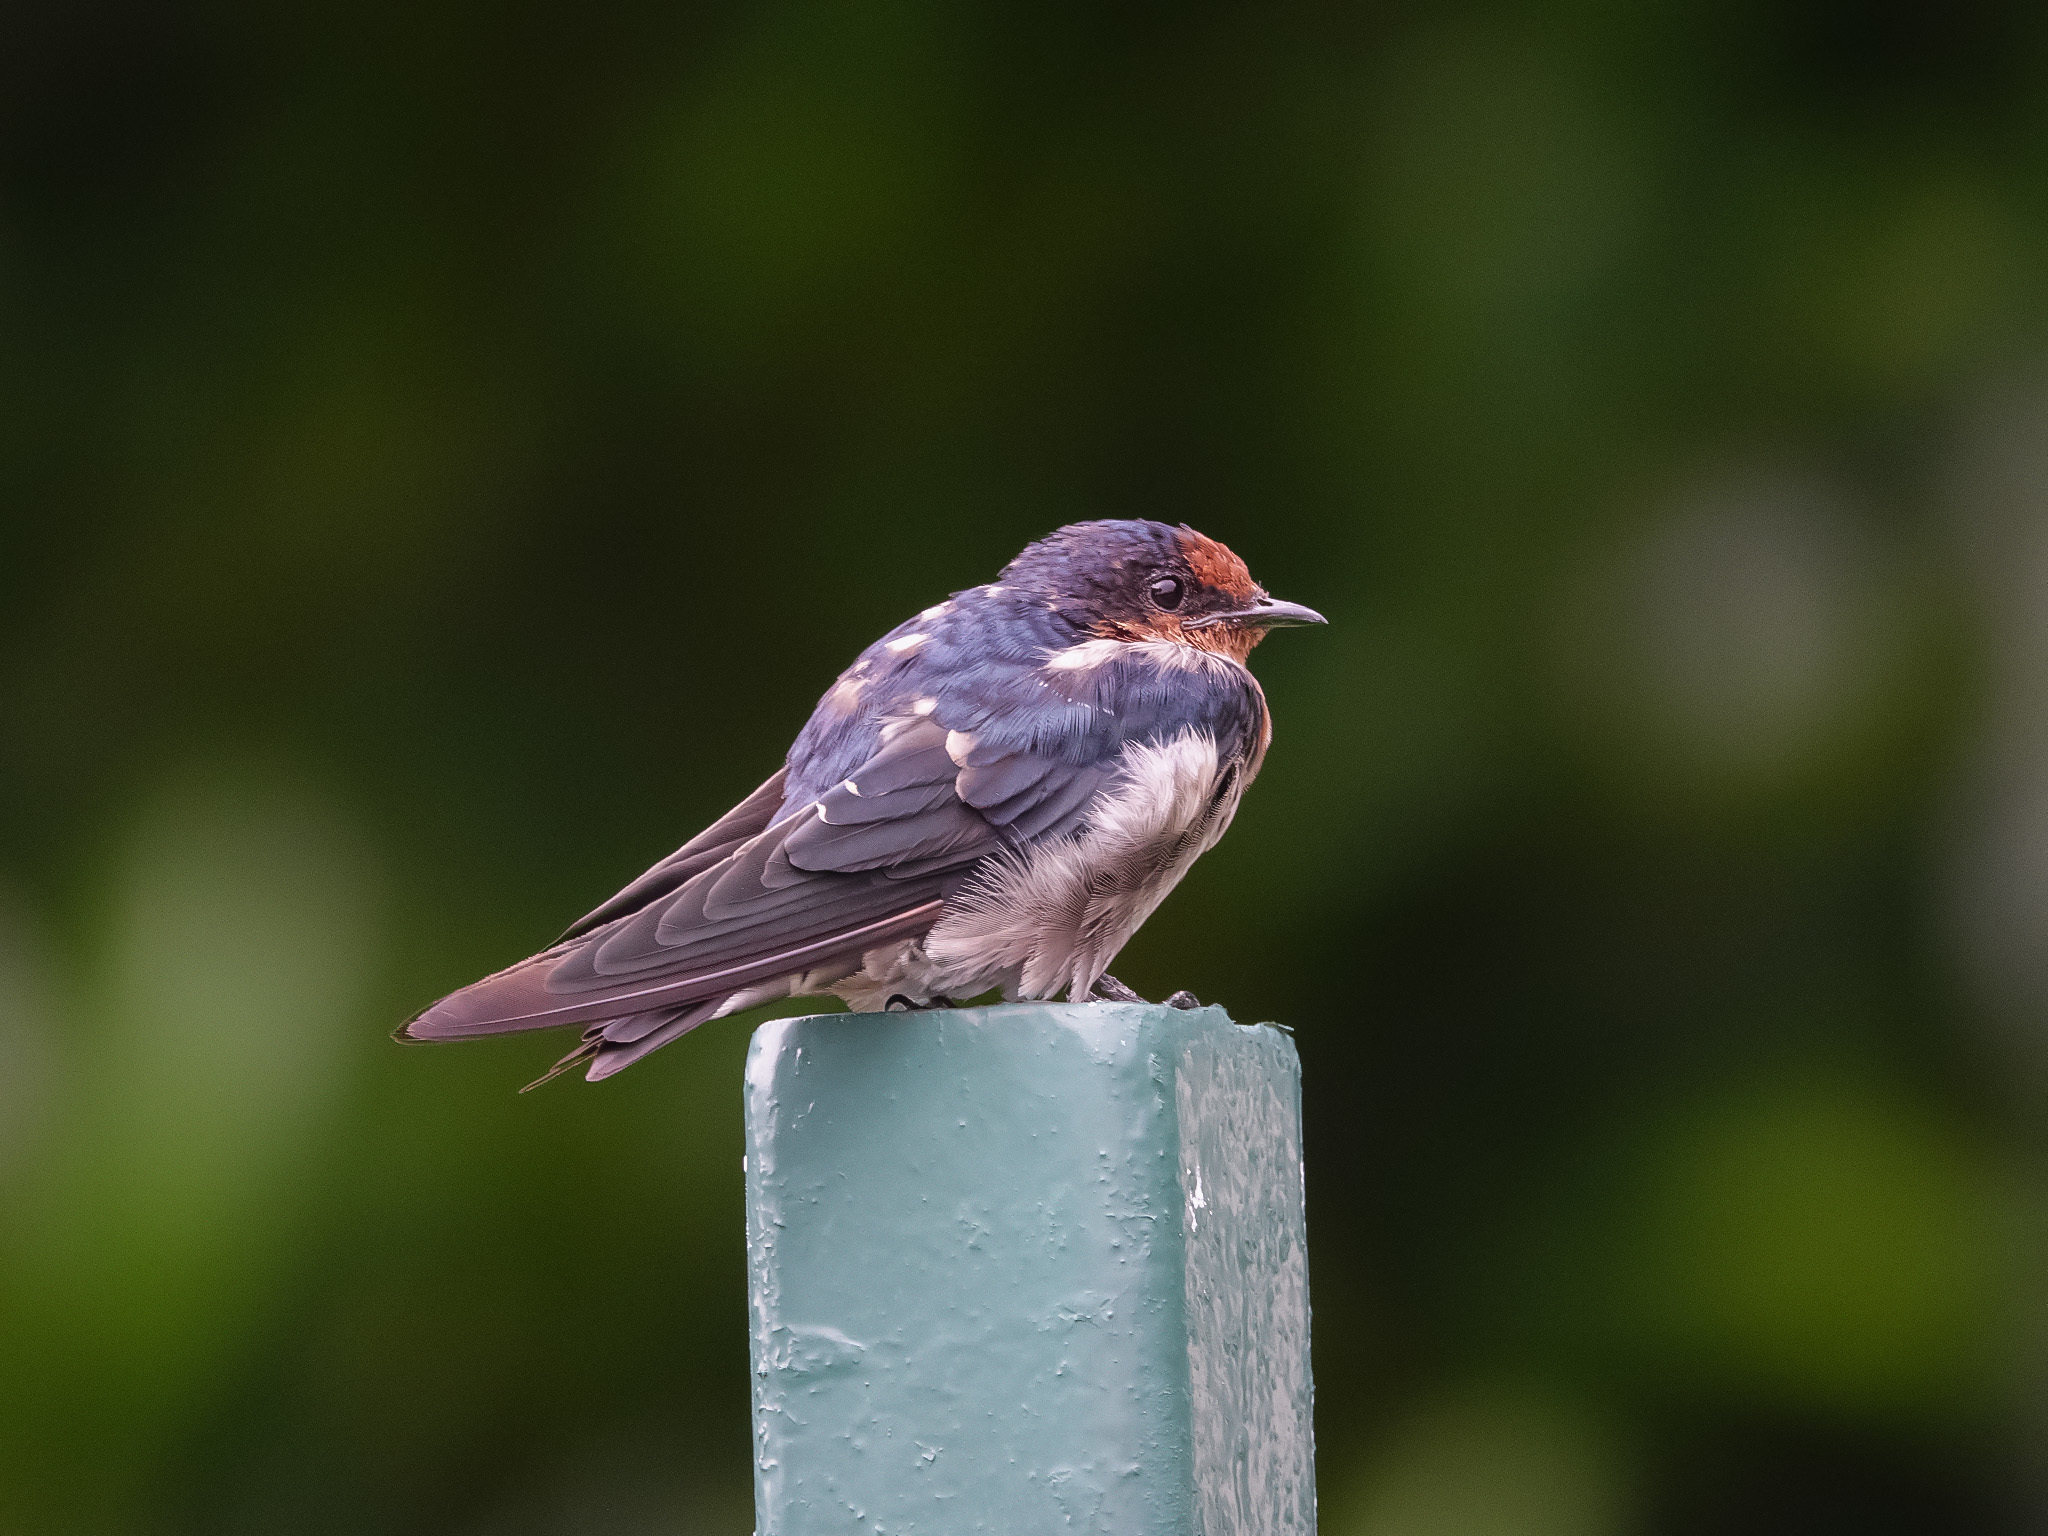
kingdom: Animalia
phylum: Chordata
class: Aves
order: Passeriformes
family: Hirundinidae
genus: Hirundo
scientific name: Hirundo tahitica
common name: Pacific swallow
